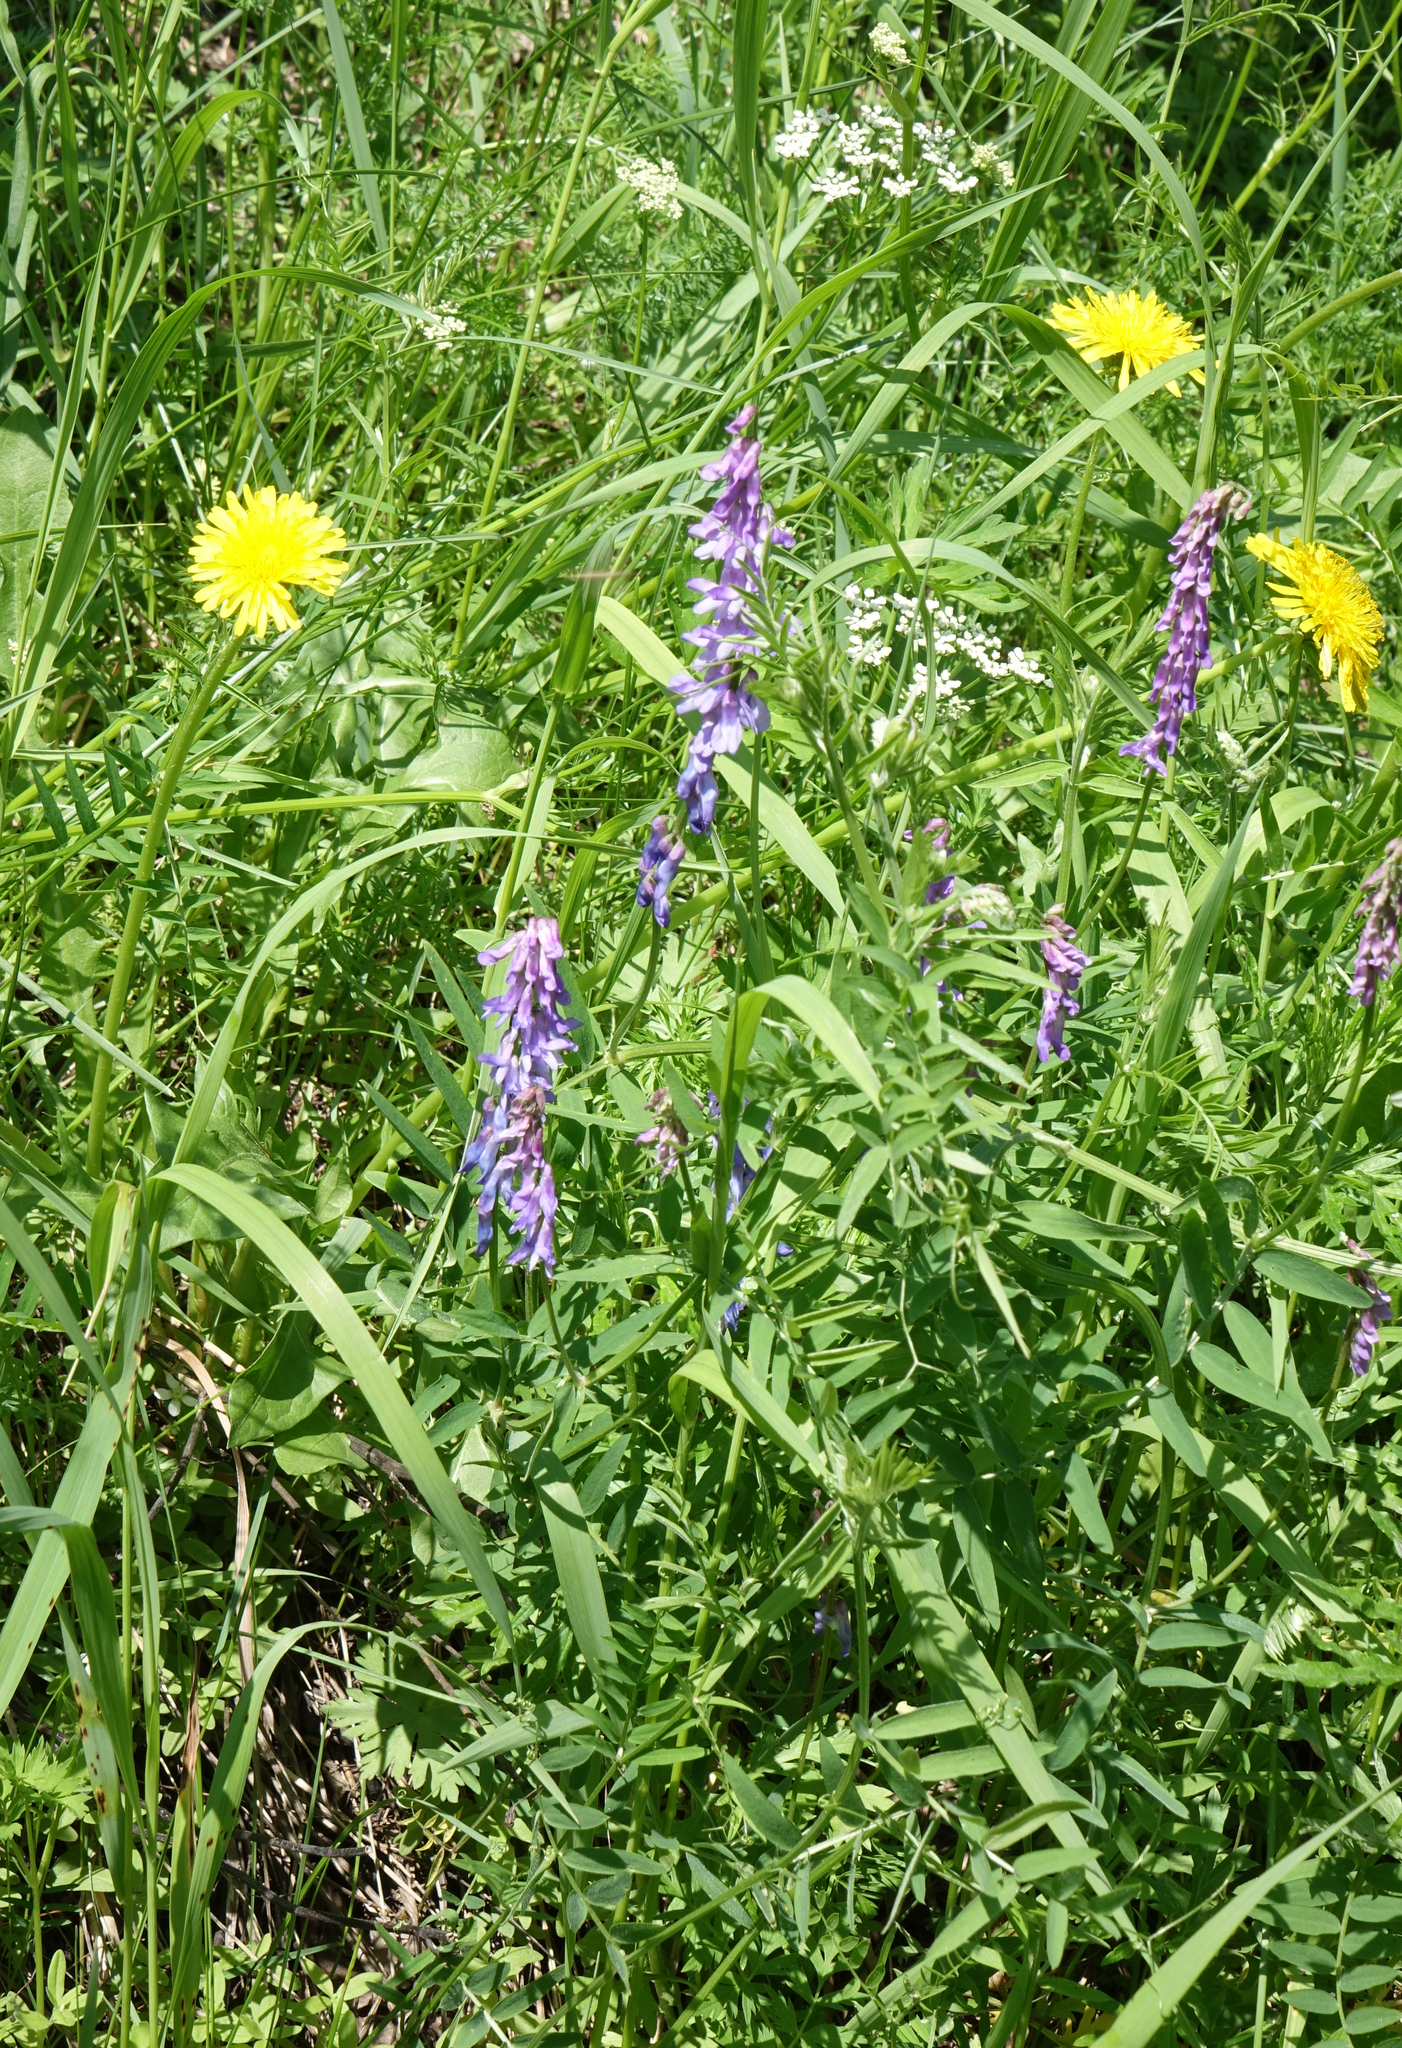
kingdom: Plantae
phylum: Tracheophyta
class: Magnoliopsida
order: Fabales
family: Fabaceae
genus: Vicia
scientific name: Vicia cracca
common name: Bird vetch
